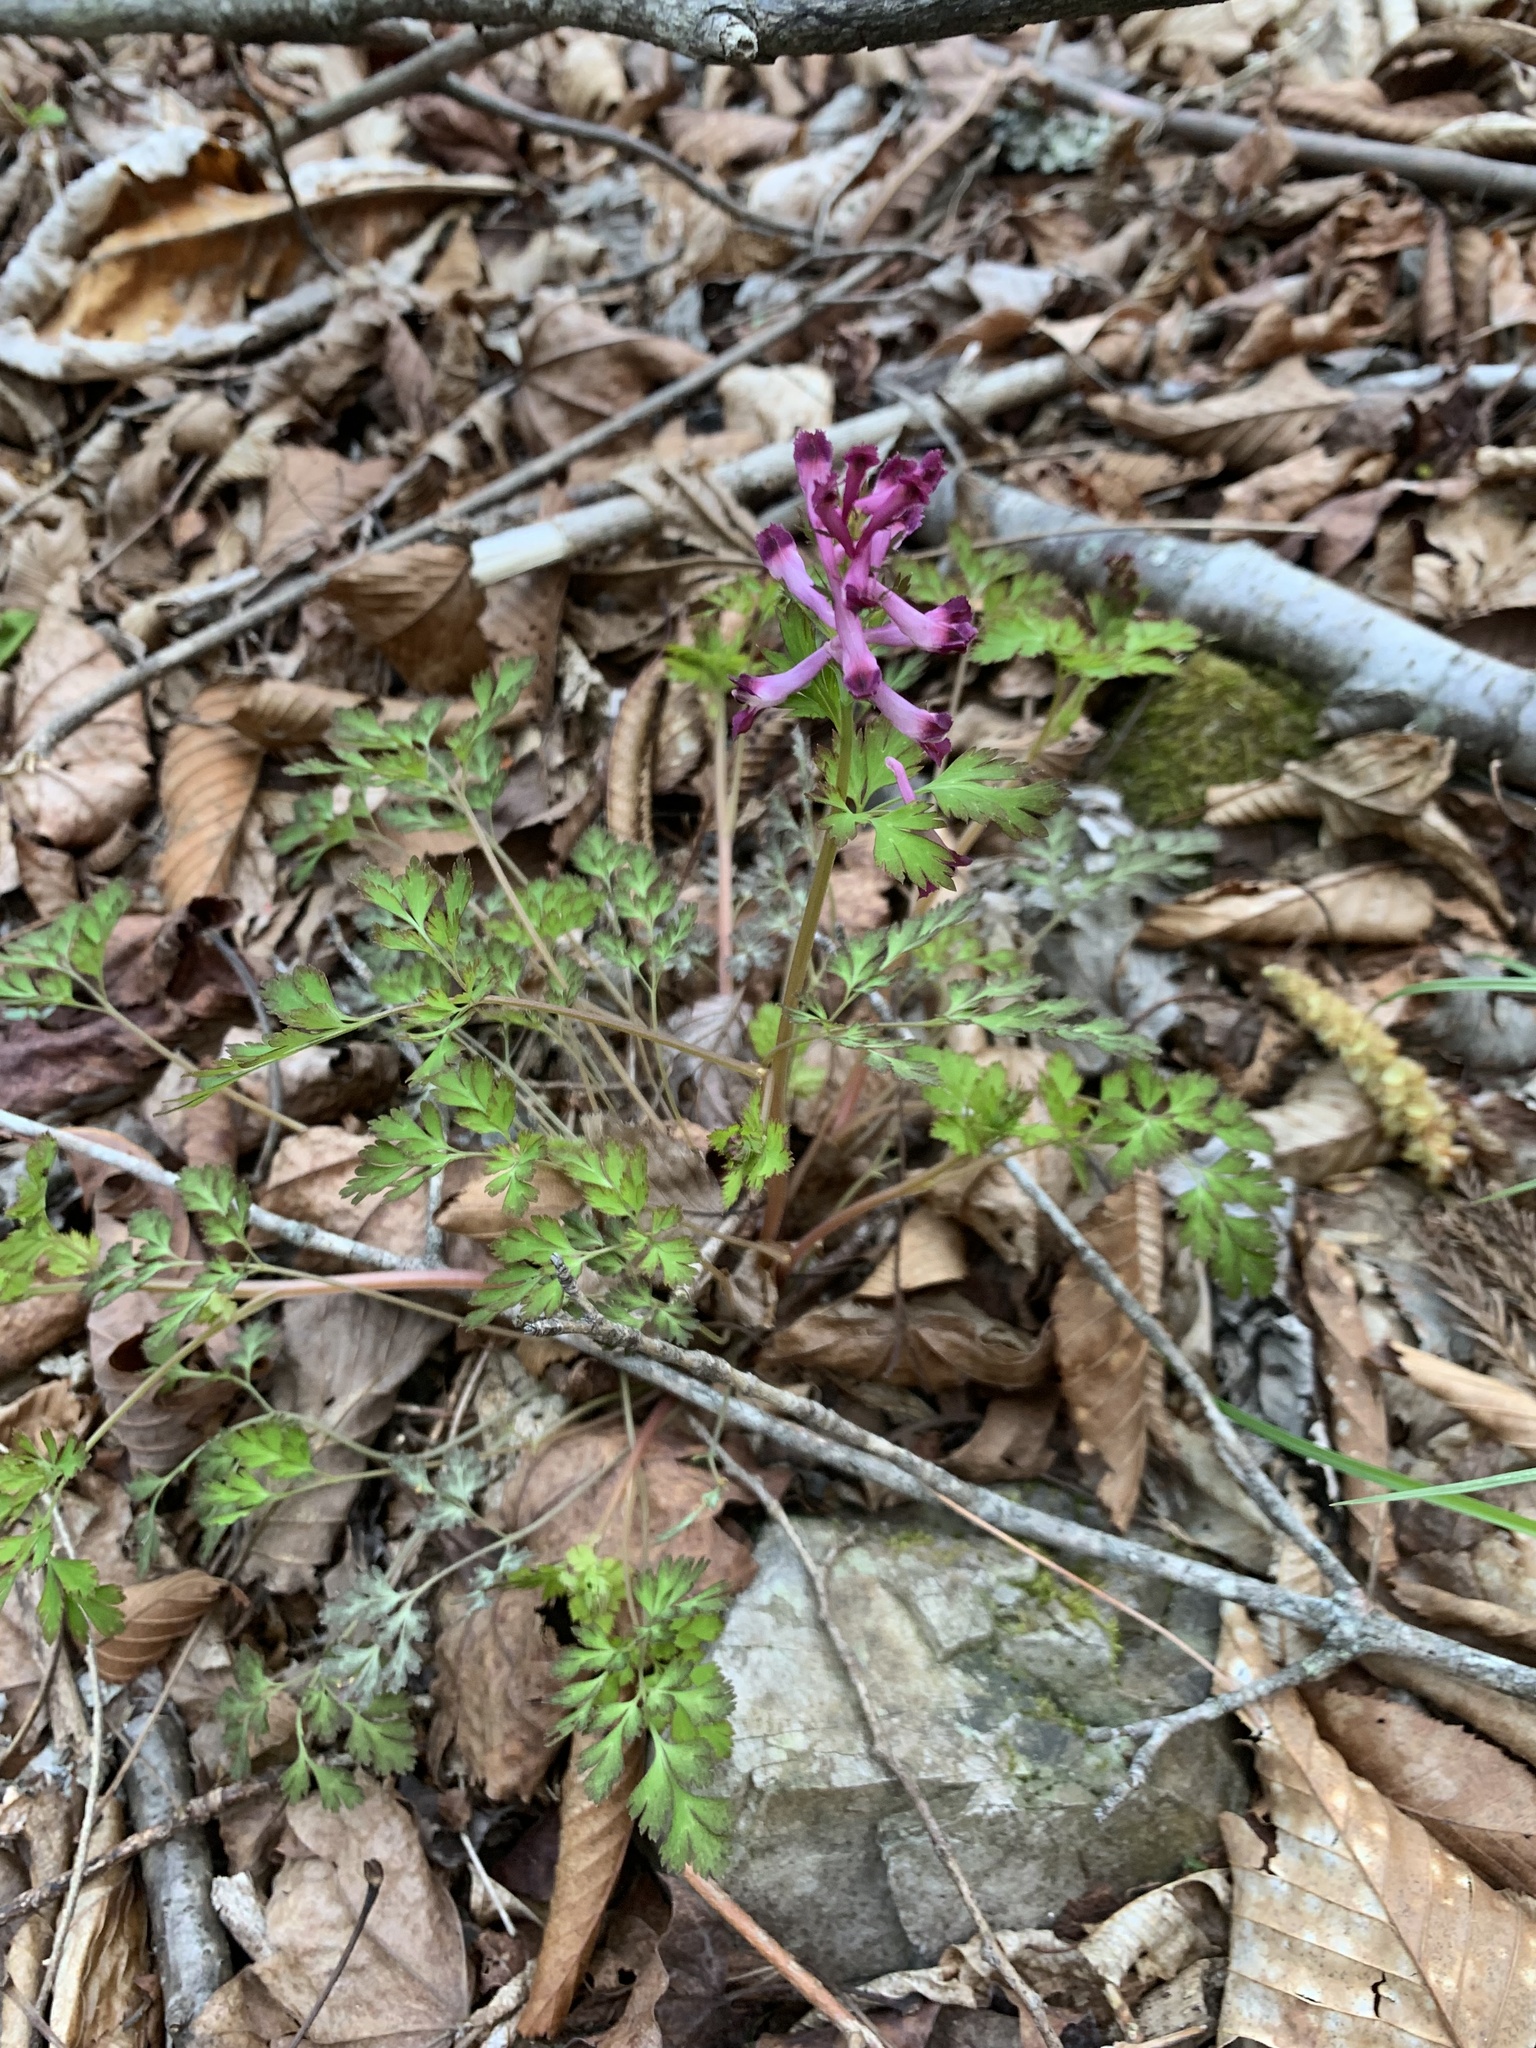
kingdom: Plantae
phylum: Tracheophyta
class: Magnoliopsida
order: Ranunculales
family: Papaveraceae
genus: Corydalis
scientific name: Corydalis incisa
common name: Incised fumewort
